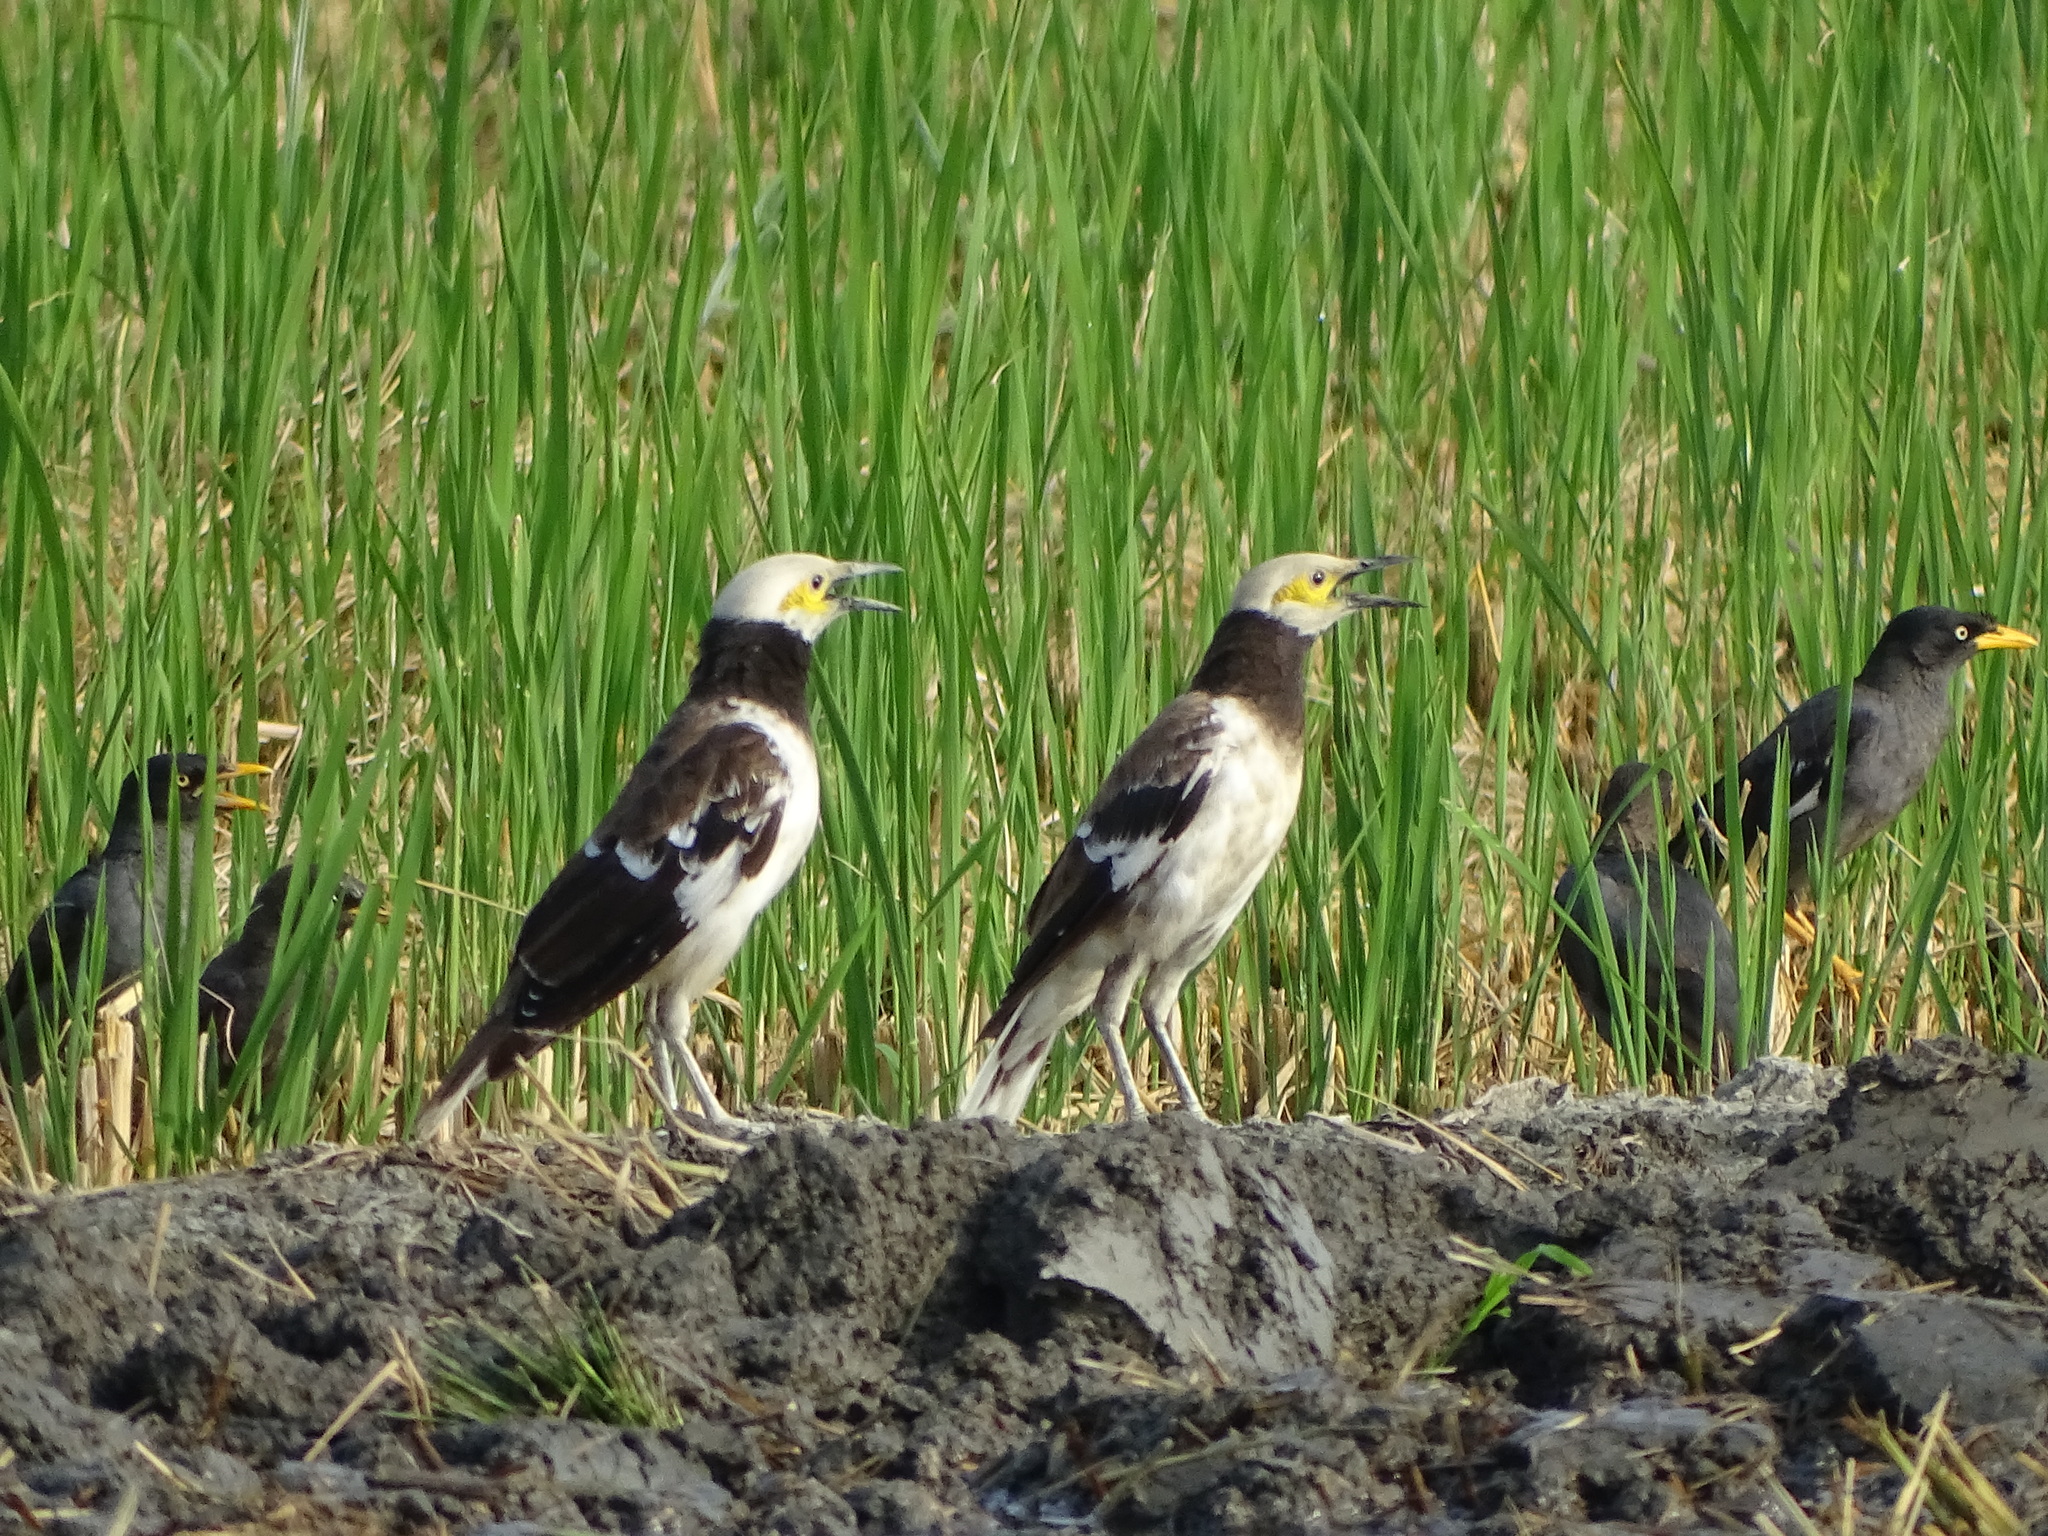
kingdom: Animalia
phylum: Chordata
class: Aves
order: Passeriformes
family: Sturnidae
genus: Gracupica
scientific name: Gracupica nigricollis
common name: Black-collared starling
